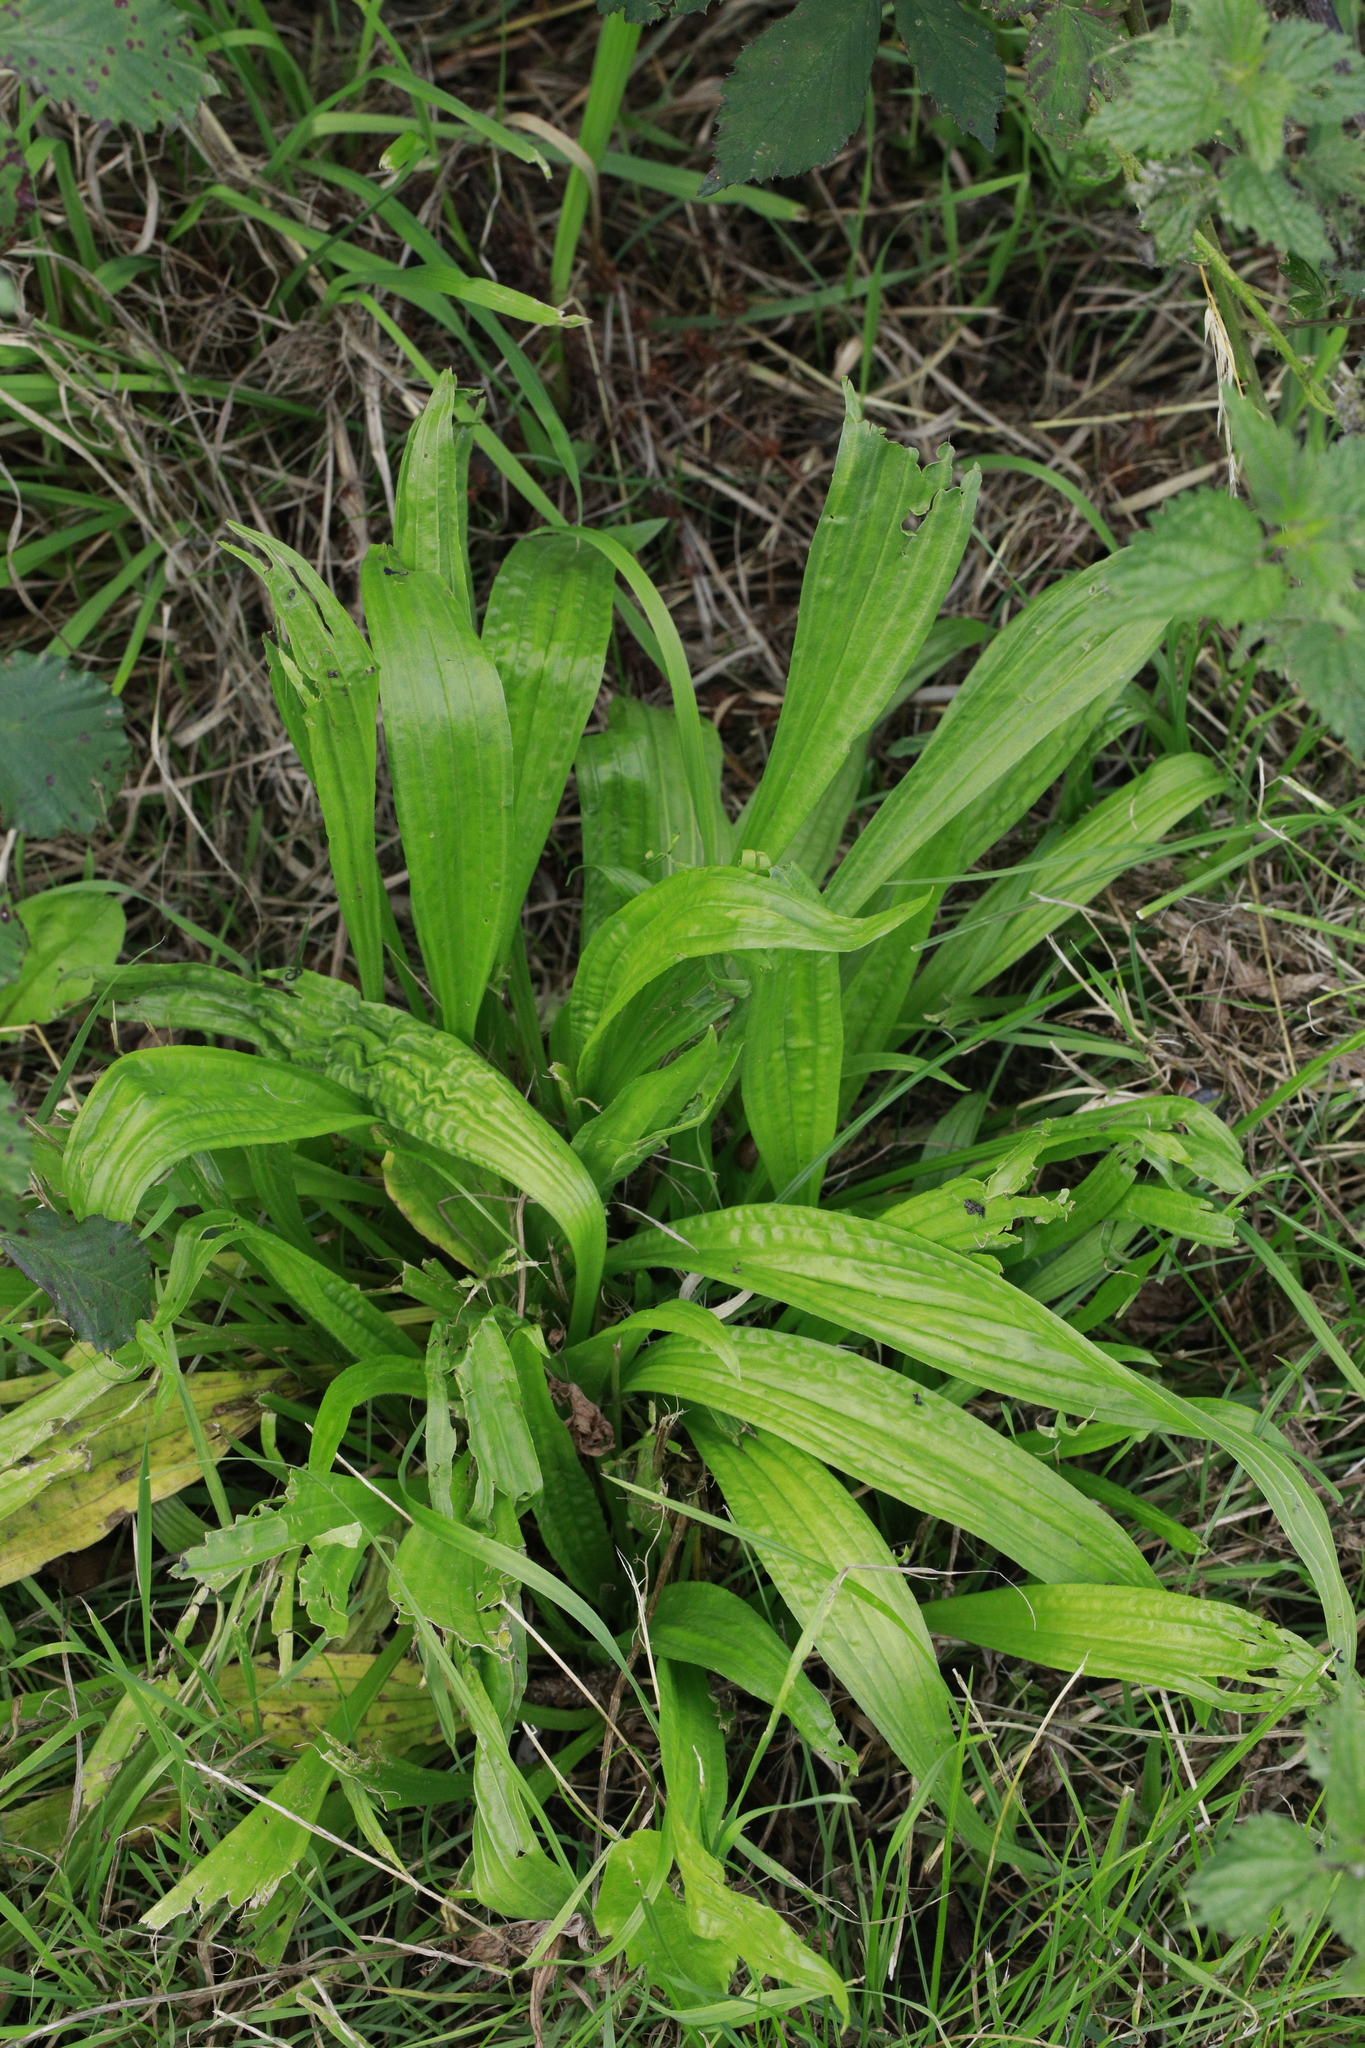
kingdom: Plantae
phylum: Tracheophyta
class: Magnoliopsida
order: Lamiales
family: Plantaginaceae
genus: Plantago
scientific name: Plantago lanceolata
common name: Ribwort plantain
